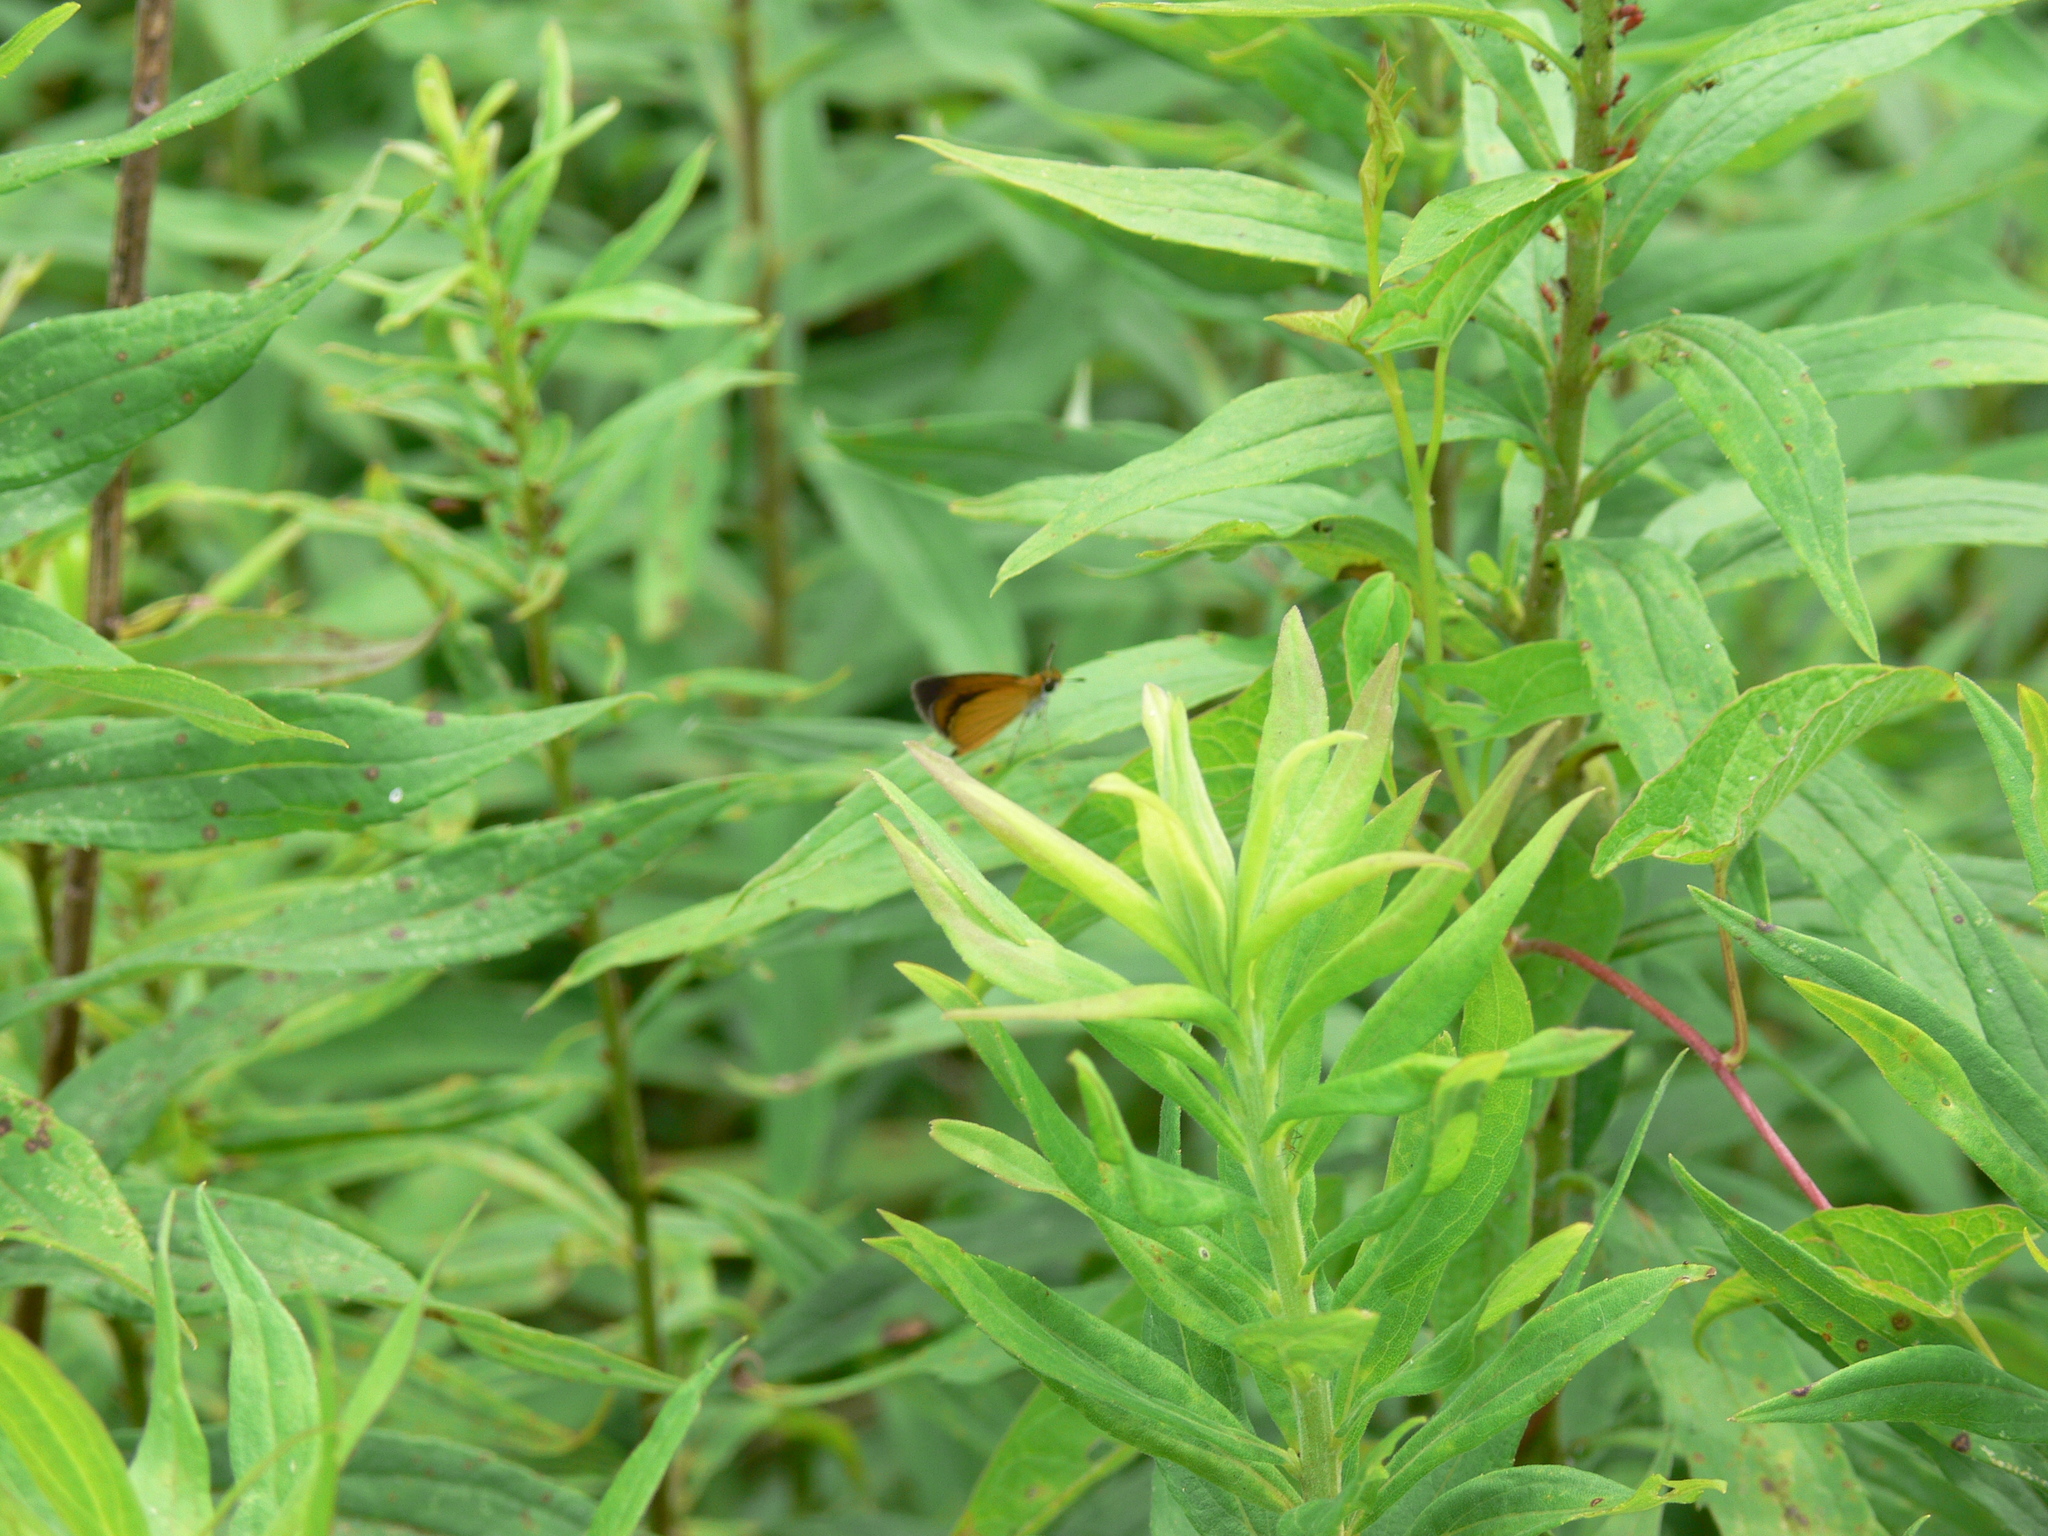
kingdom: Animalia
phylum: Arthropoda
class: Insecta
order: Lepidoptera
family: Hesperiidae
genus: Ancyloxypha
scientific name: Ancyloxypha numitor
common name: Least skipper
